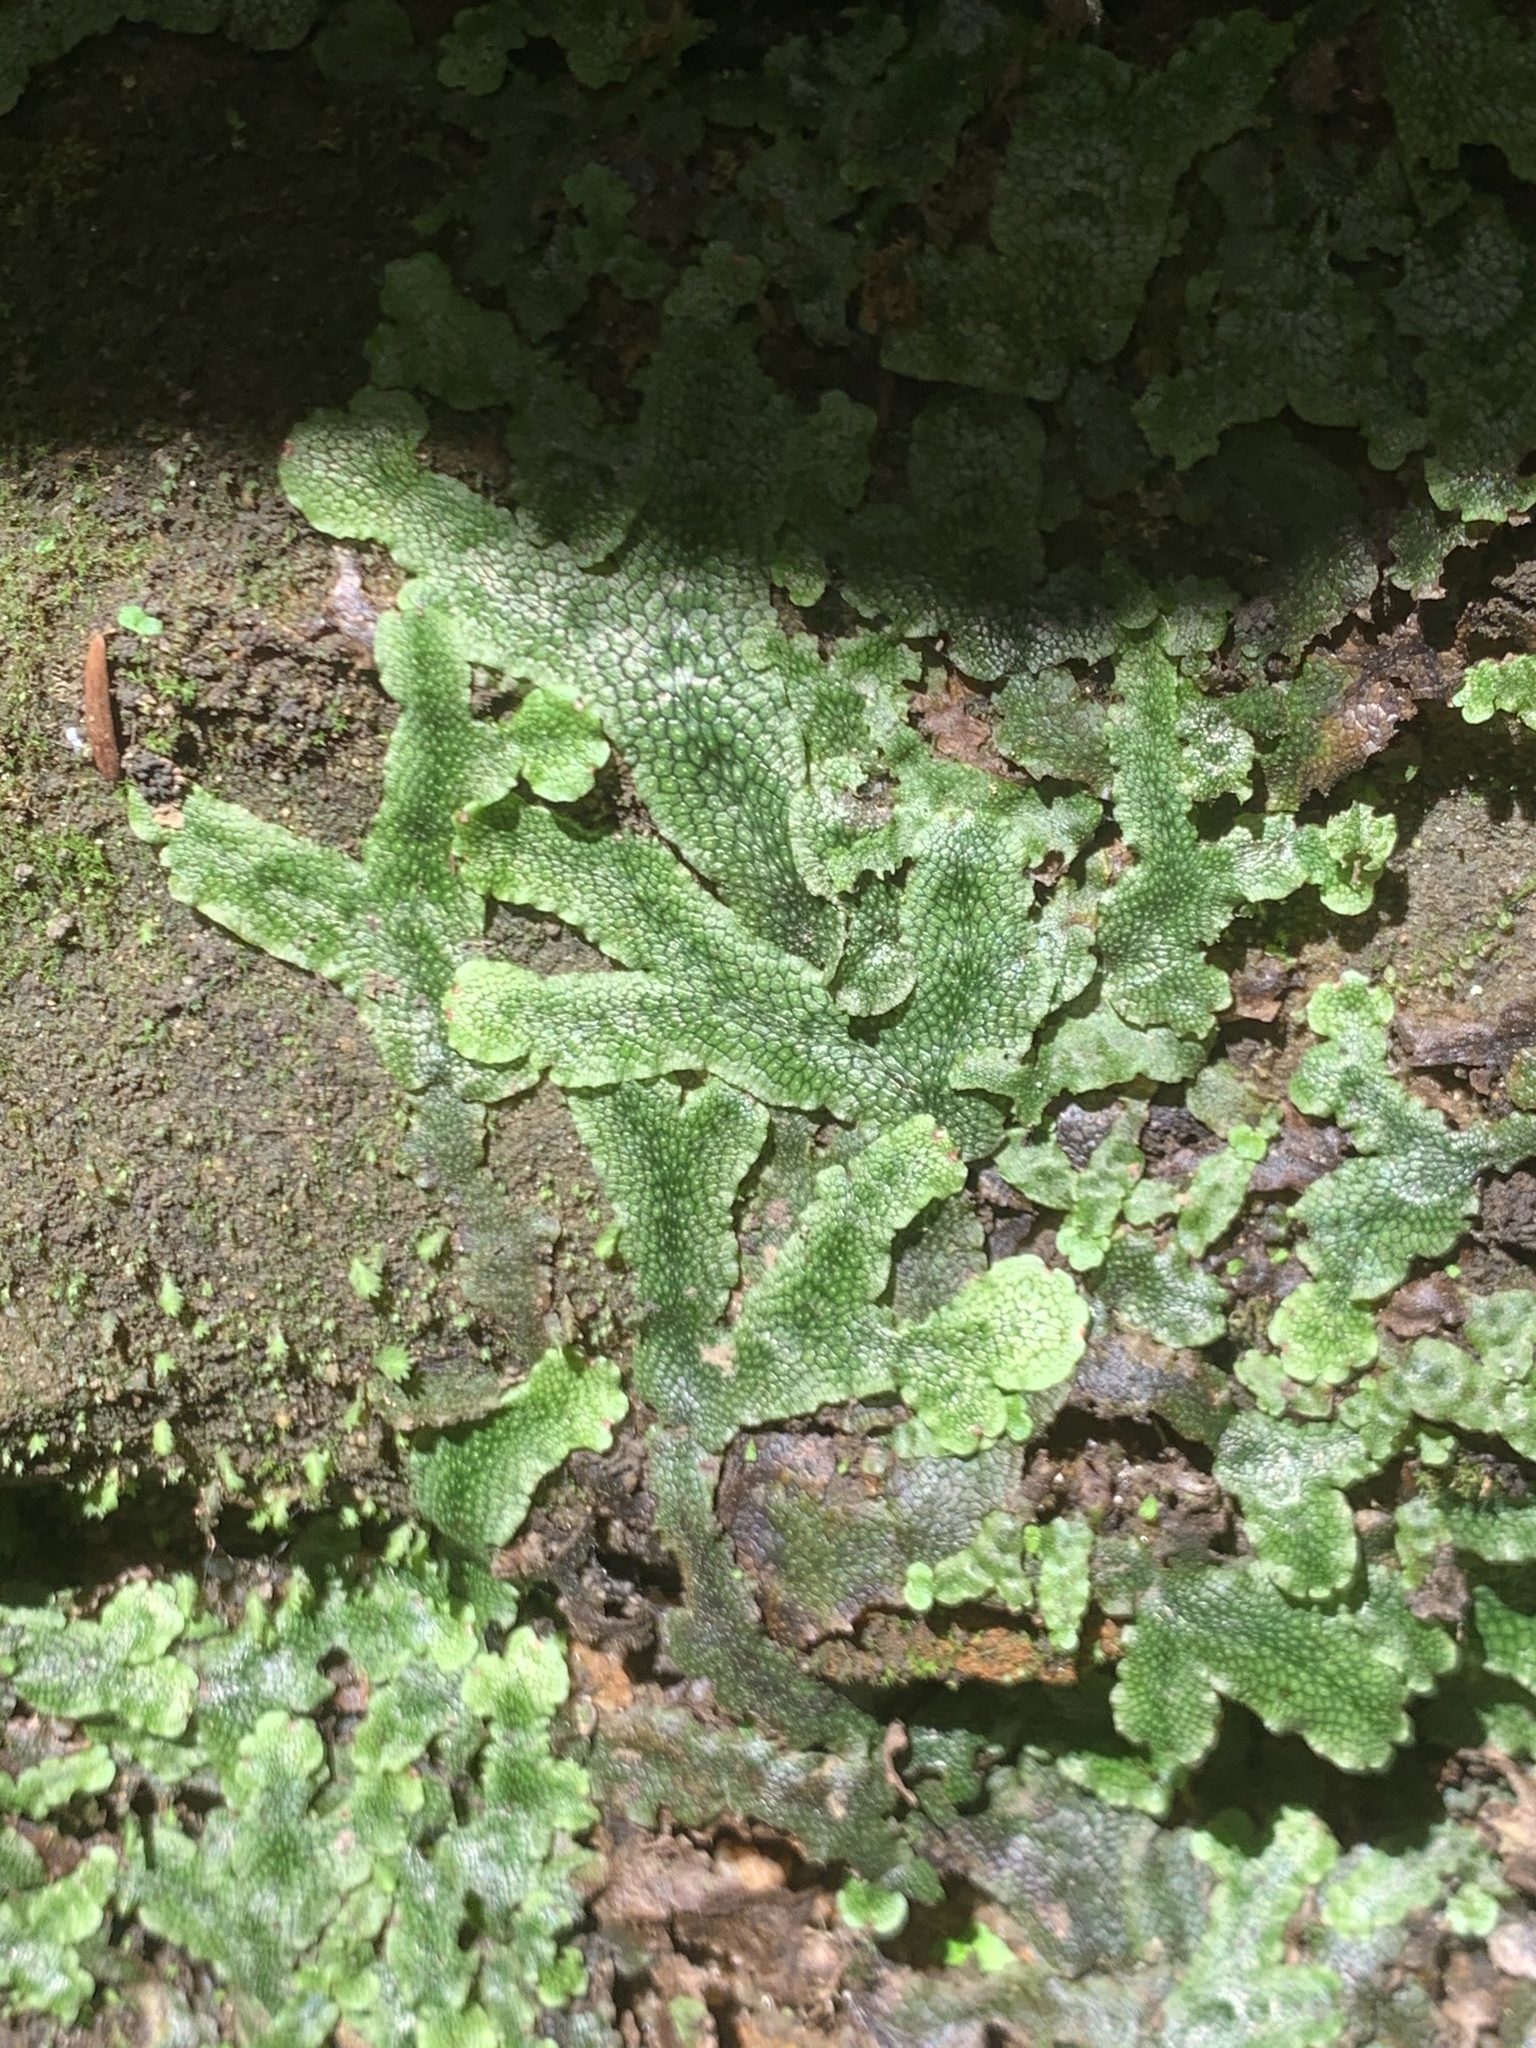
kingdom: Plantae
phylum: Marchantiophyta
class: Marchantiopsida
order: Marchantiales
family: Conocephalaceae
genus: Conocephalum
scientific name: Conocephalum salebrosum
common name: Cat-tongue liverwort
